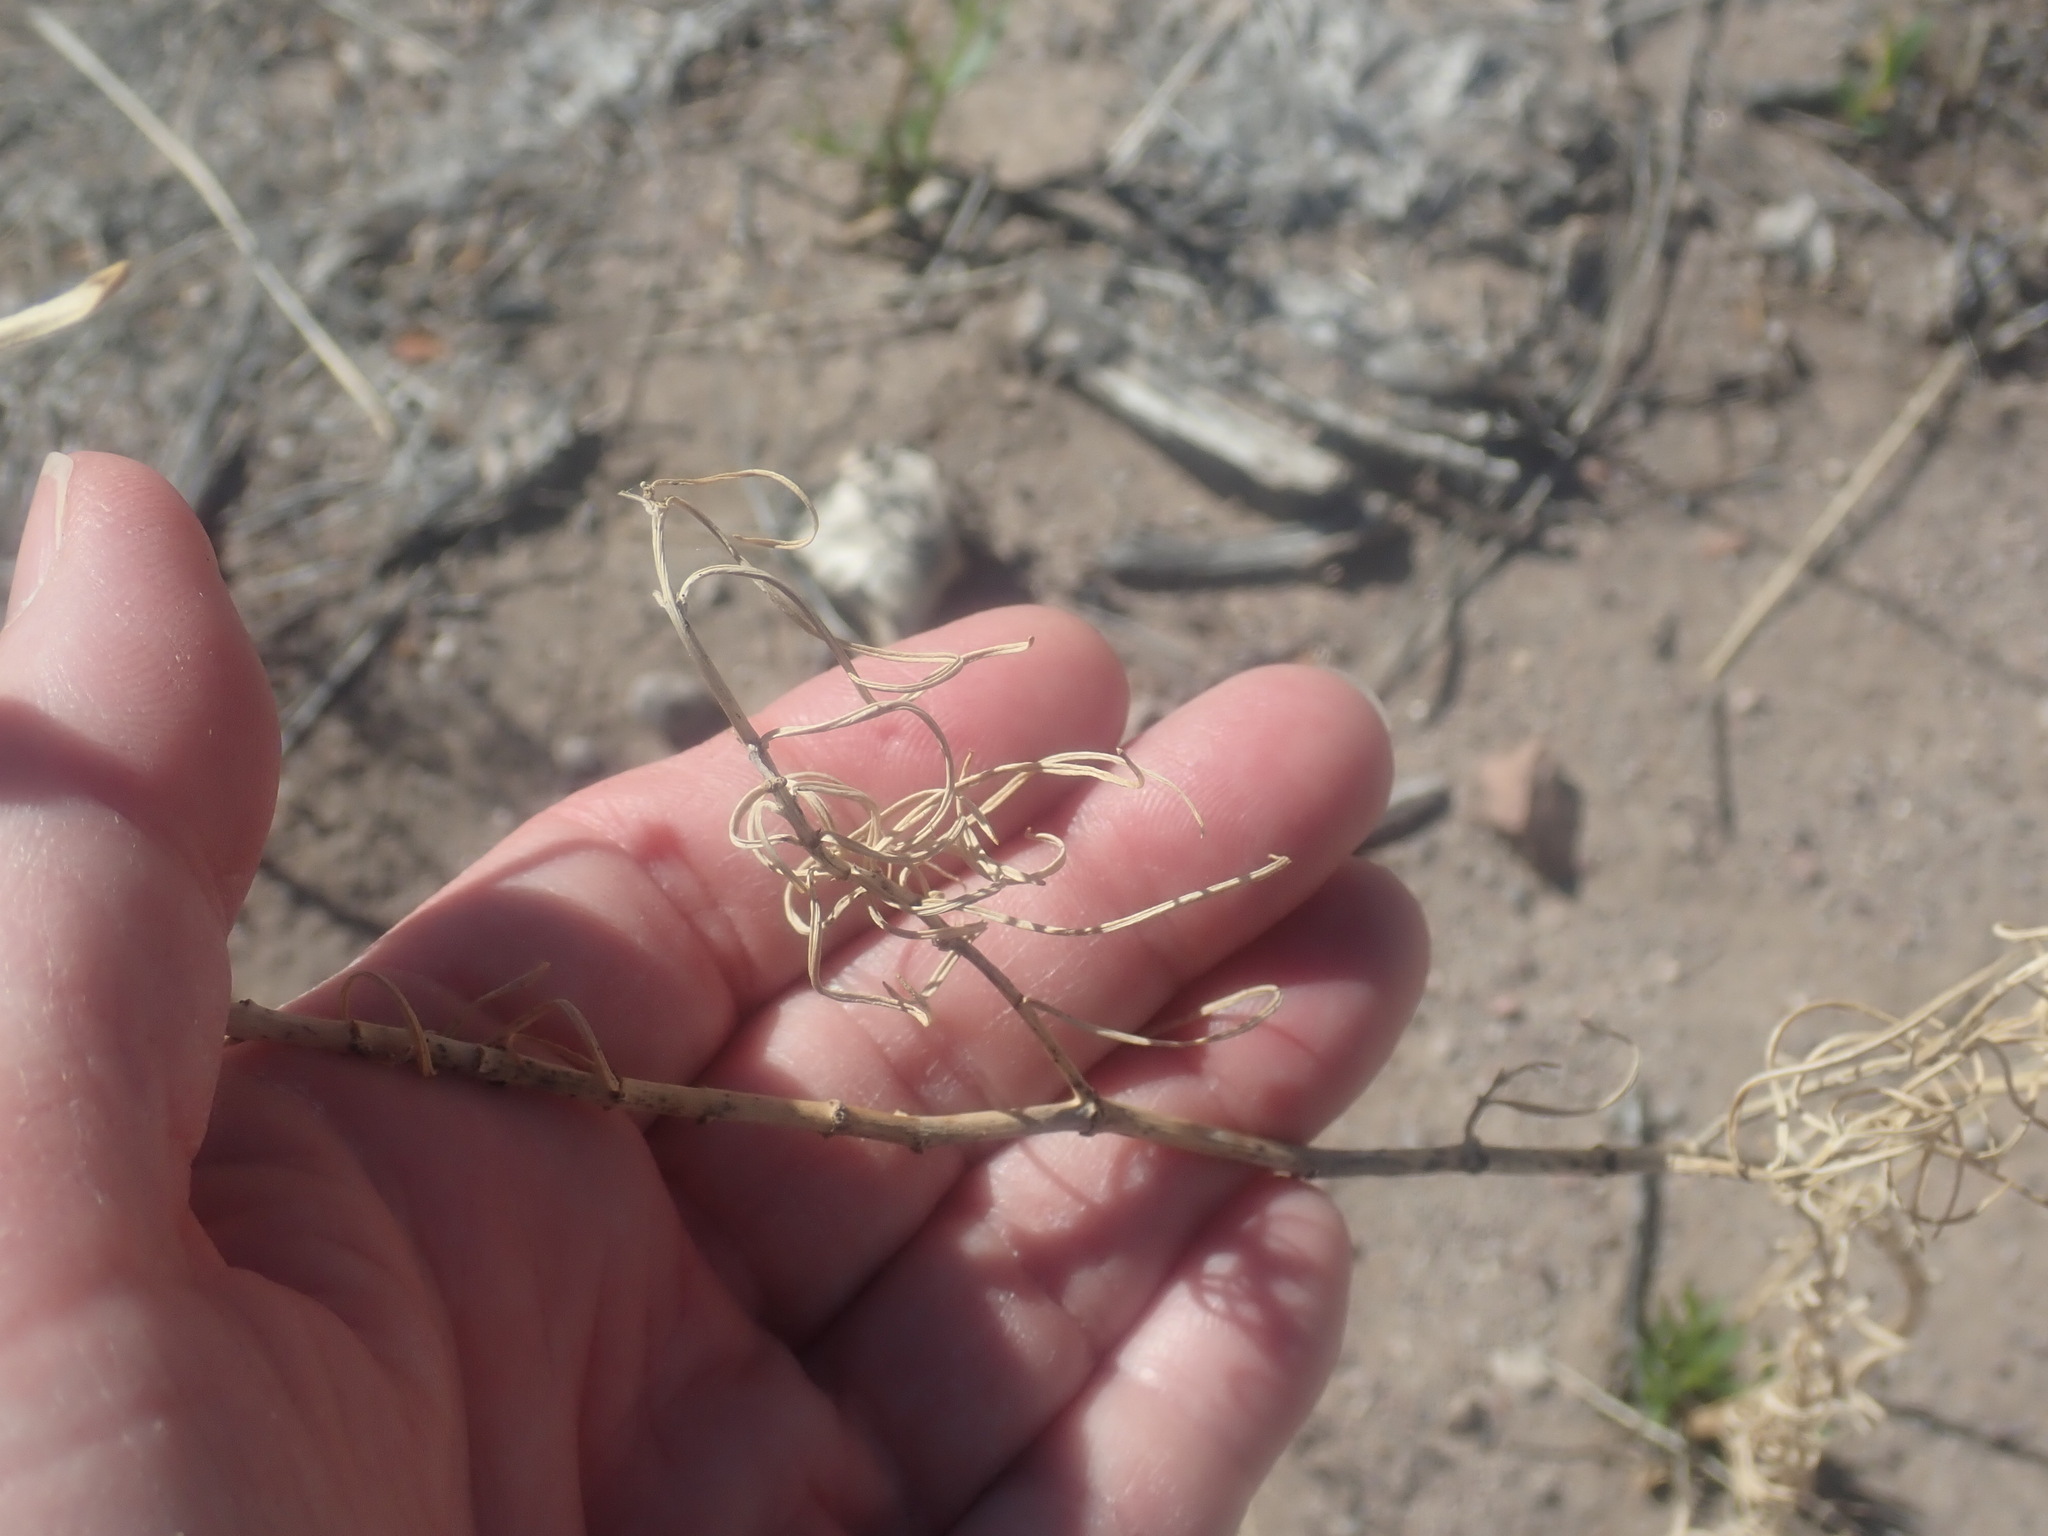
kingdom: Plantae
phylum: Tracheophyta
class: Magnoliopsida
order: Gentianales
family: Apocynaceae
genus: Asclepias
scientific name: Asclepias subverticillata
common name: Horsetail milkweed
